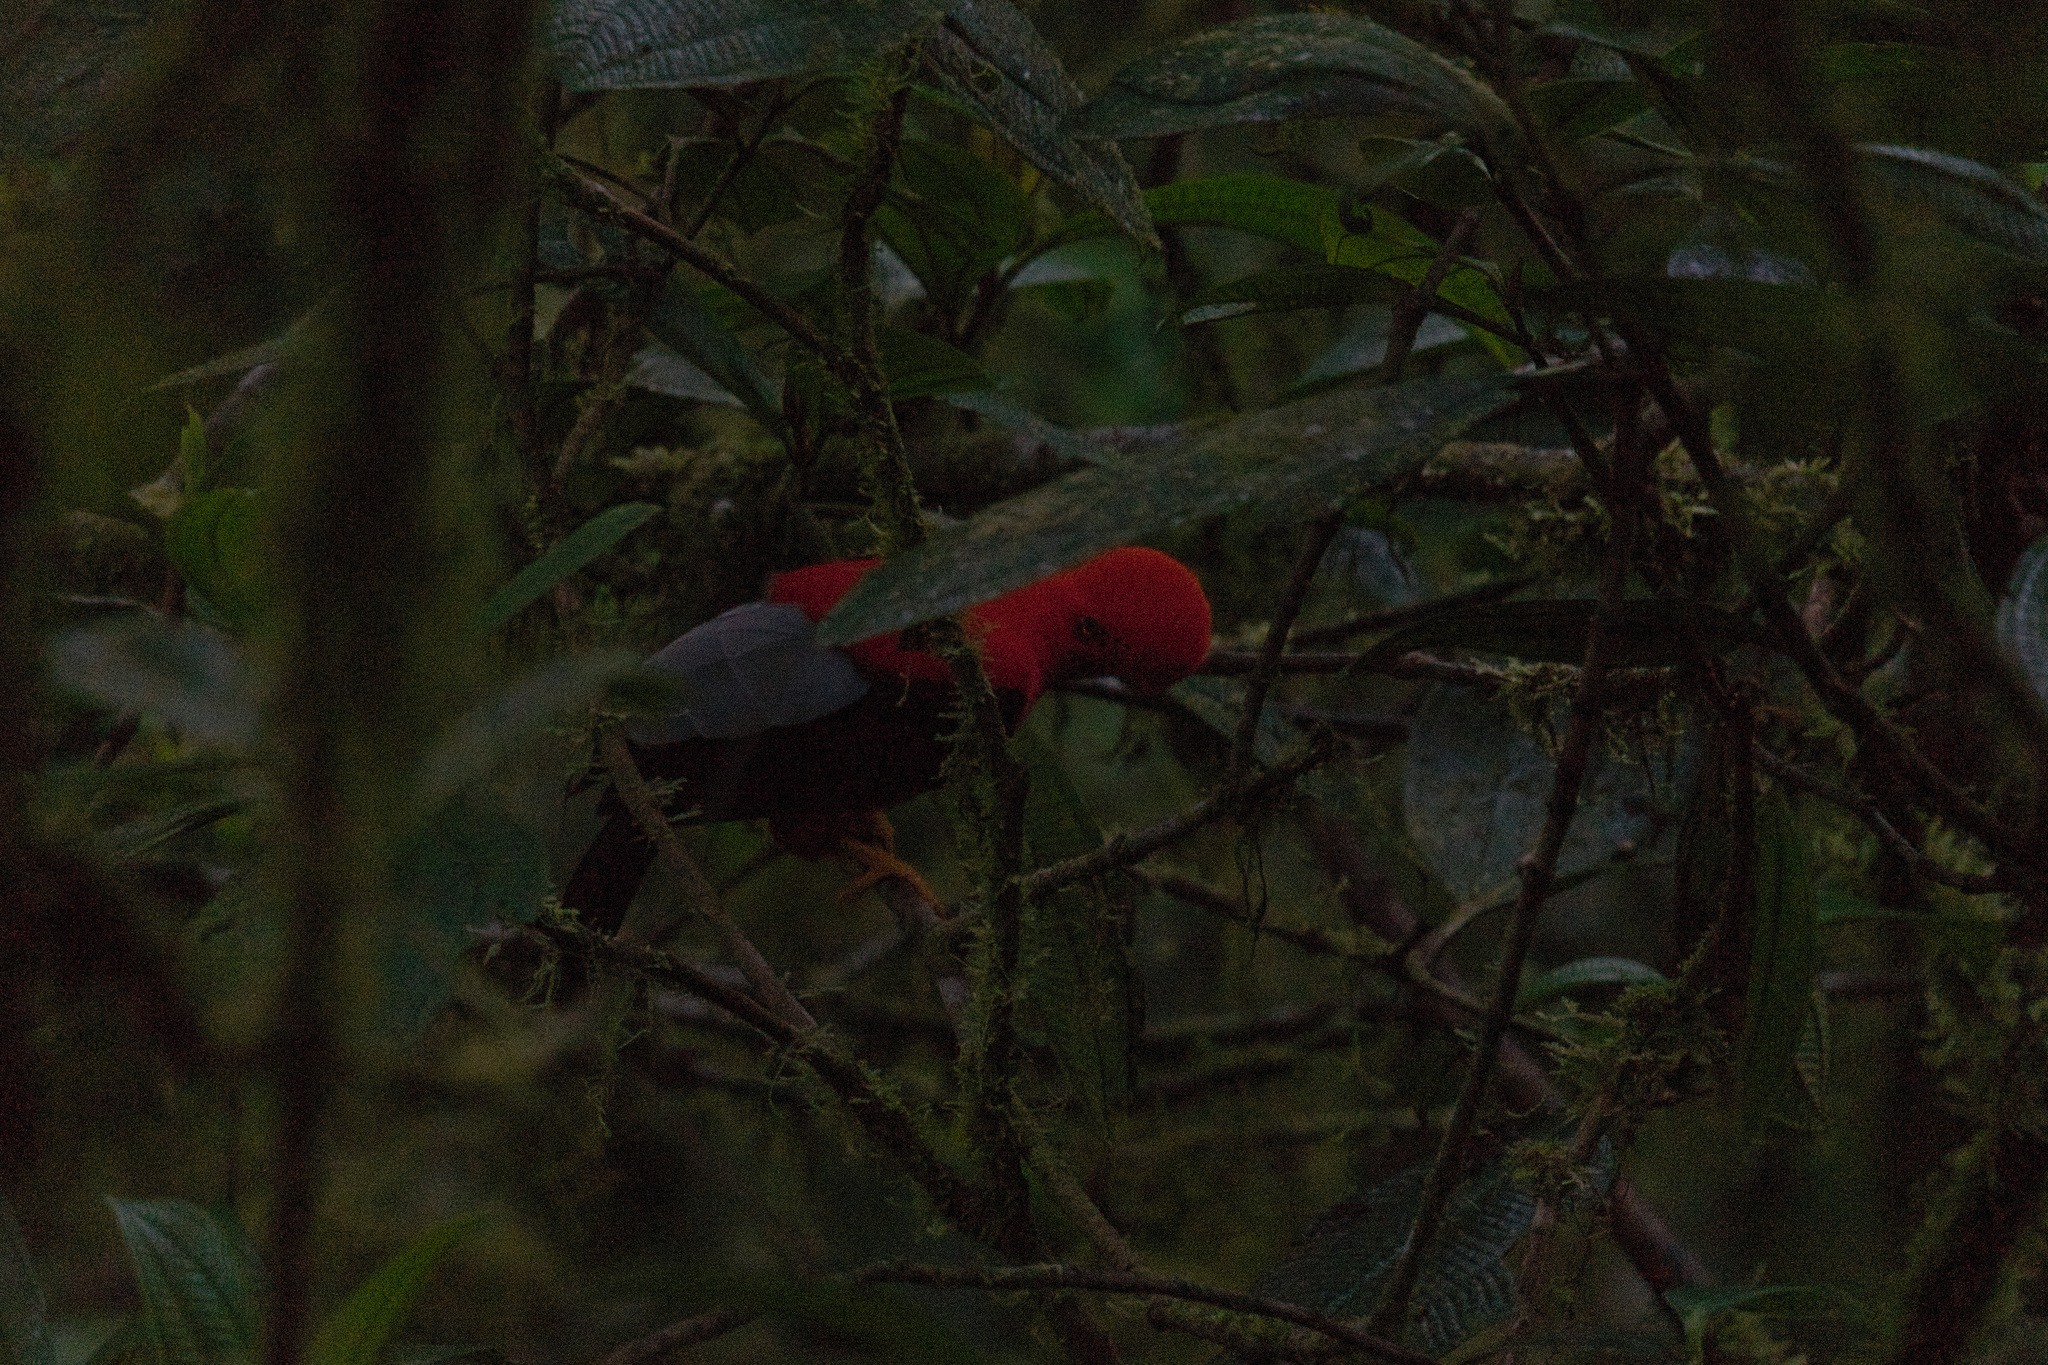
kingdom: Animalia
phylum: Chordata
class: Aves
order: Passeriformes
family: Cotingidae
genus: Rupicola
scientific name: Rupicola peruvianus
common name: Andean cock-of-the-rock
